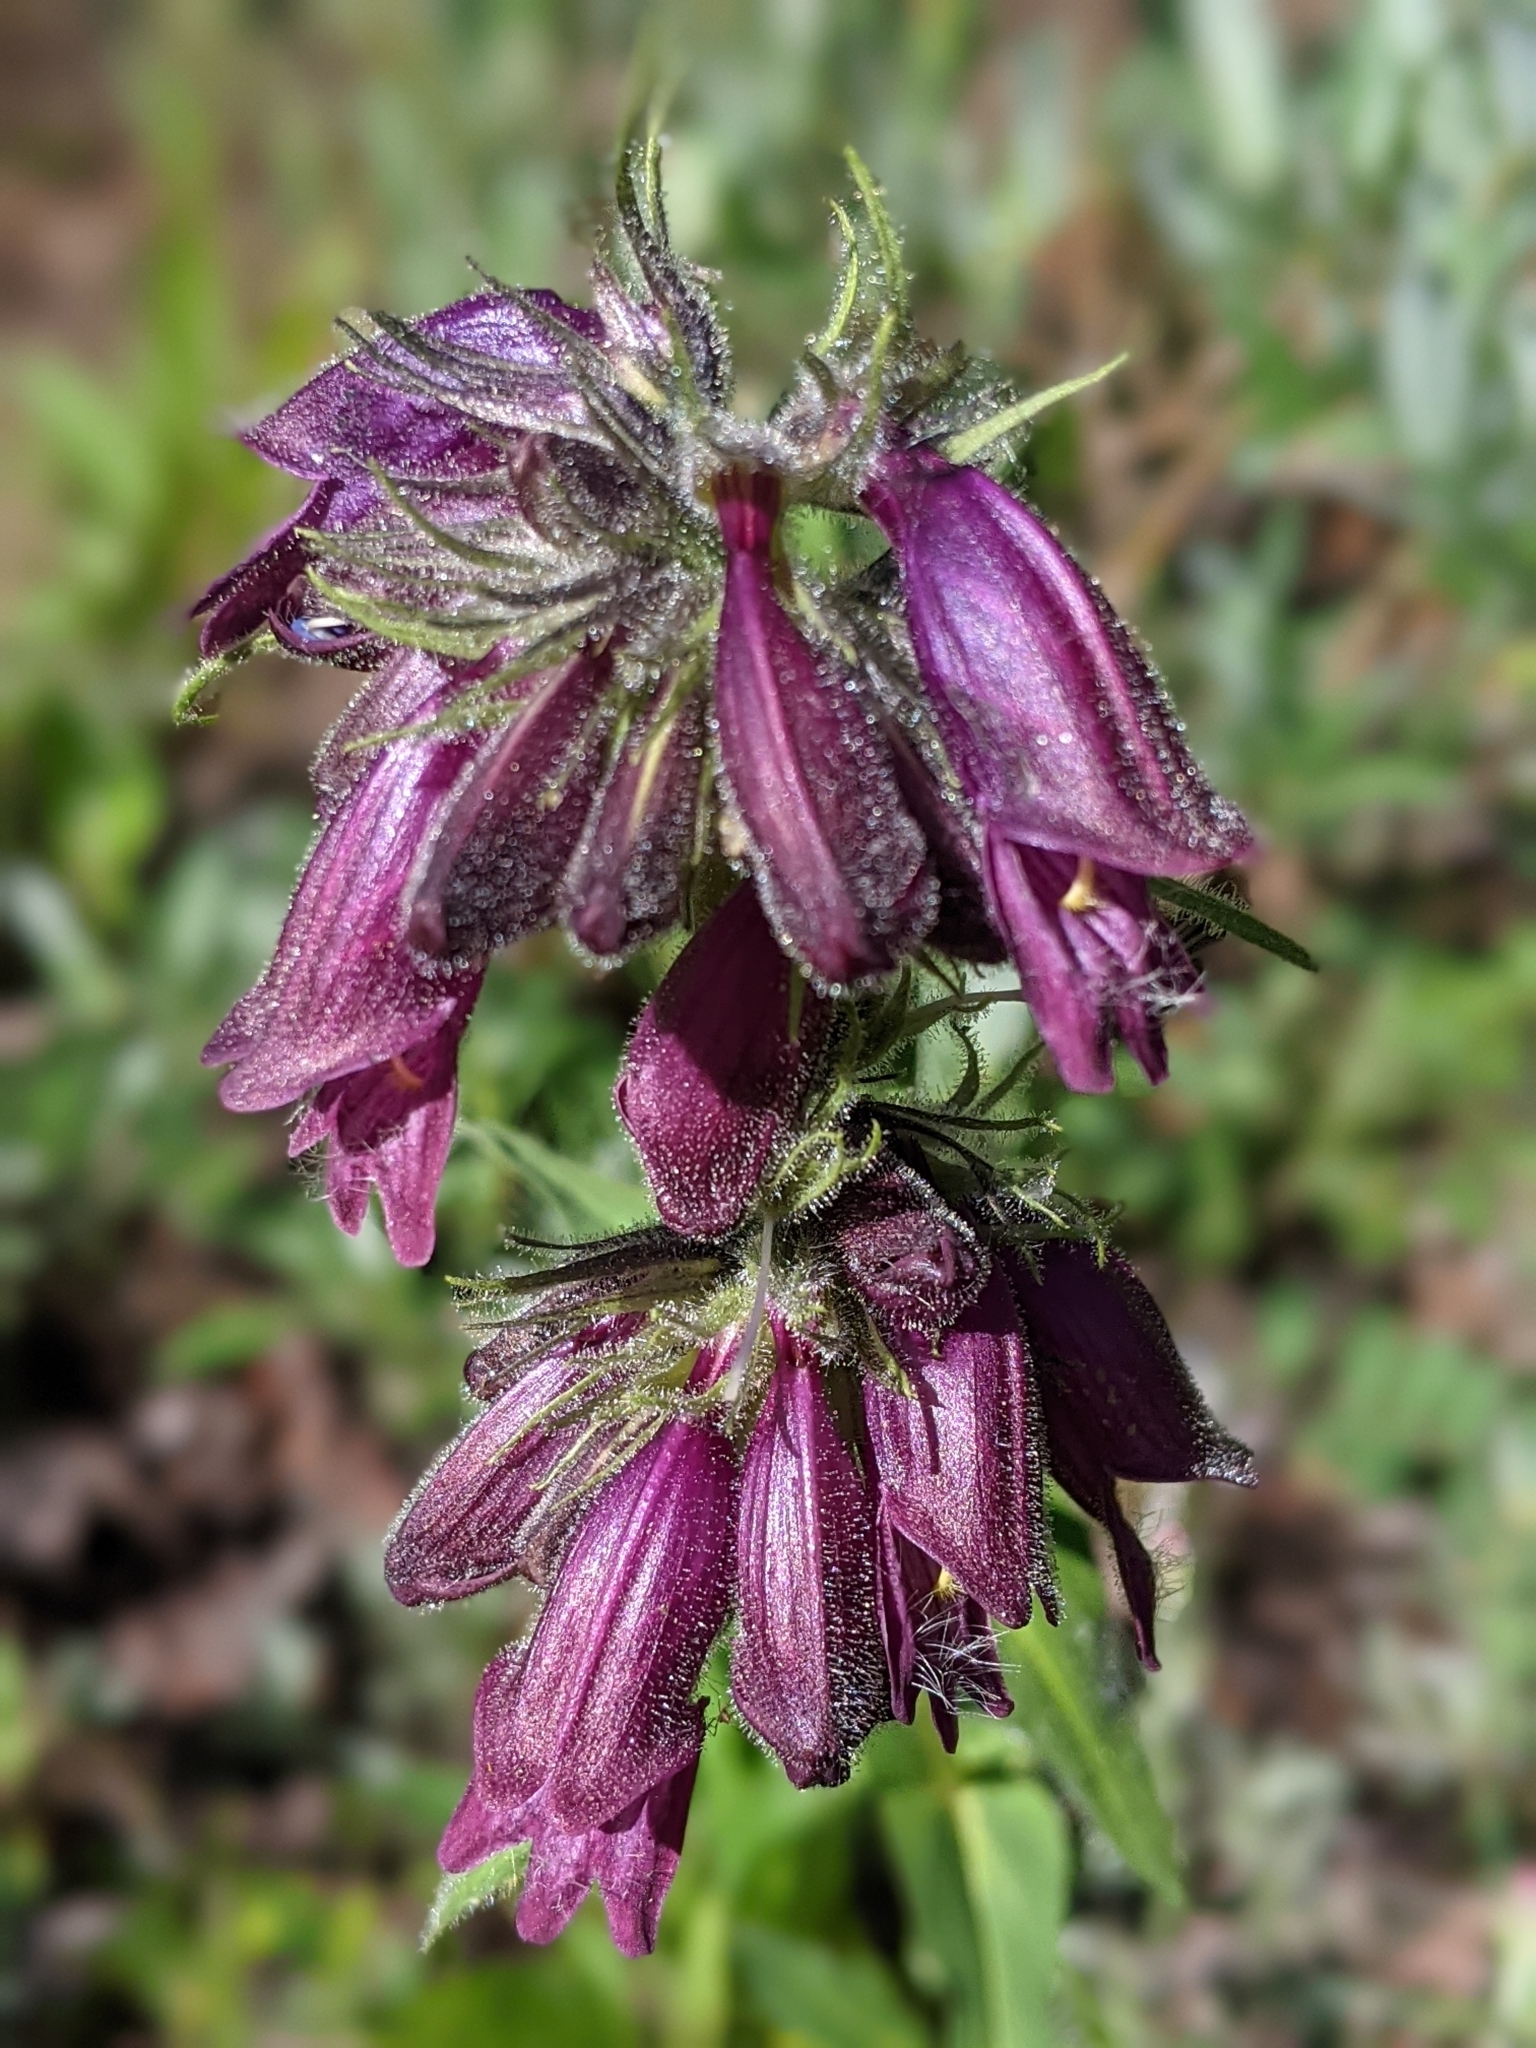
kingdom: Plantae
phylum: Tracheophyta
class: Magnoliopsida
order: Lamiales
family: Plantaginaceae
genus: Penstemon
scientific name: Penstemon whippleanus
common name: Whipple's penstemon
